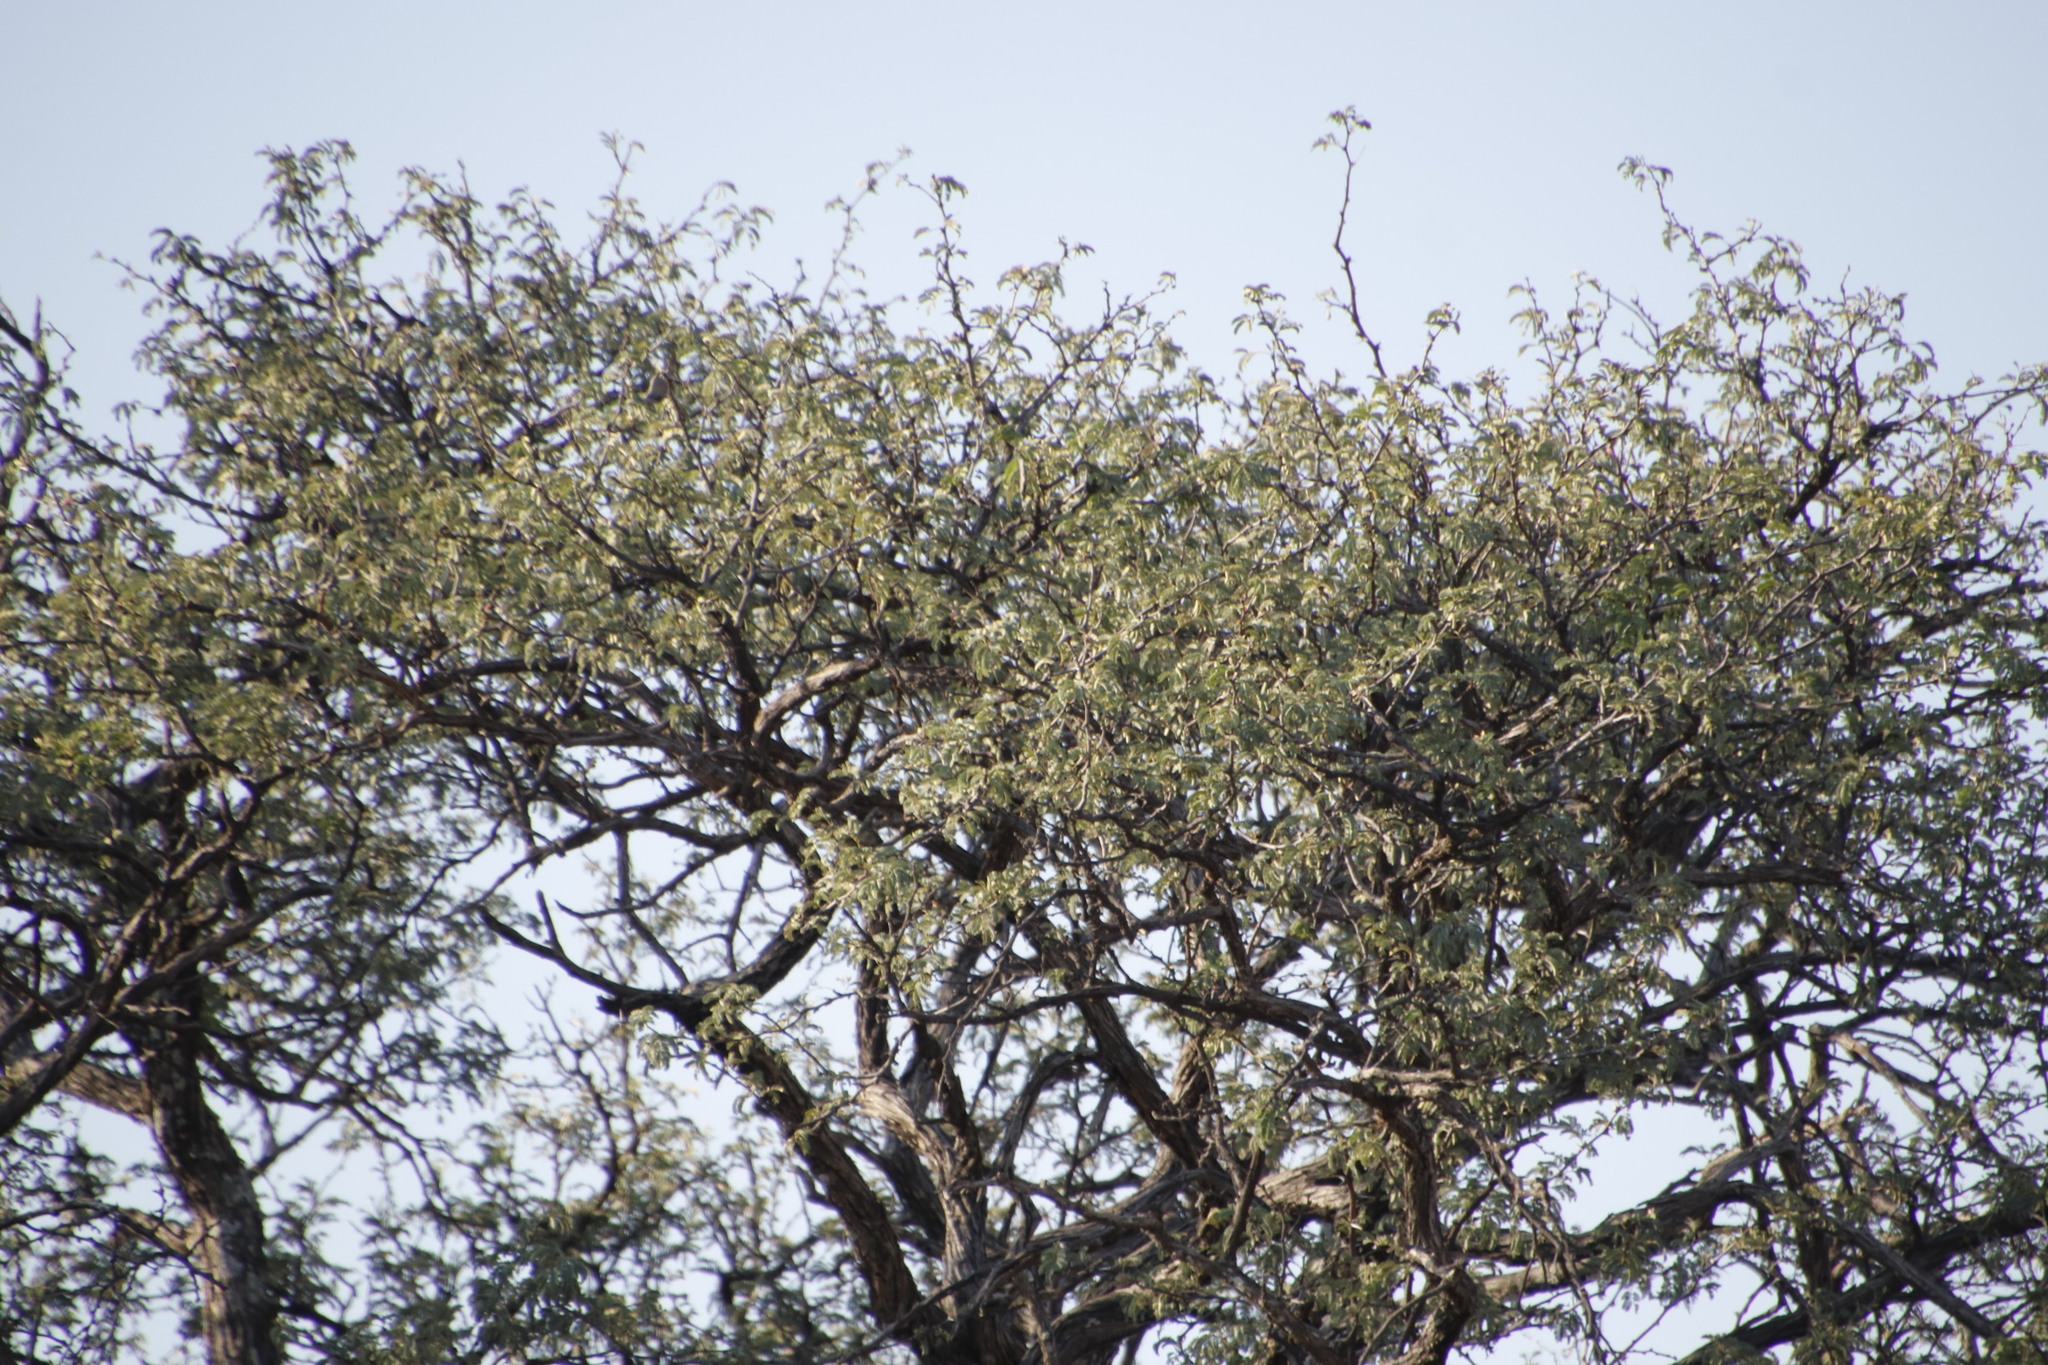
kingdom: Plantae
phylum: Tracheophyta
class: Magnoliopsida
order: Fabales
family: Fabaceae
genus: Vachellia
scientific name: Vachellia erioloba
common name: Camel thorn
